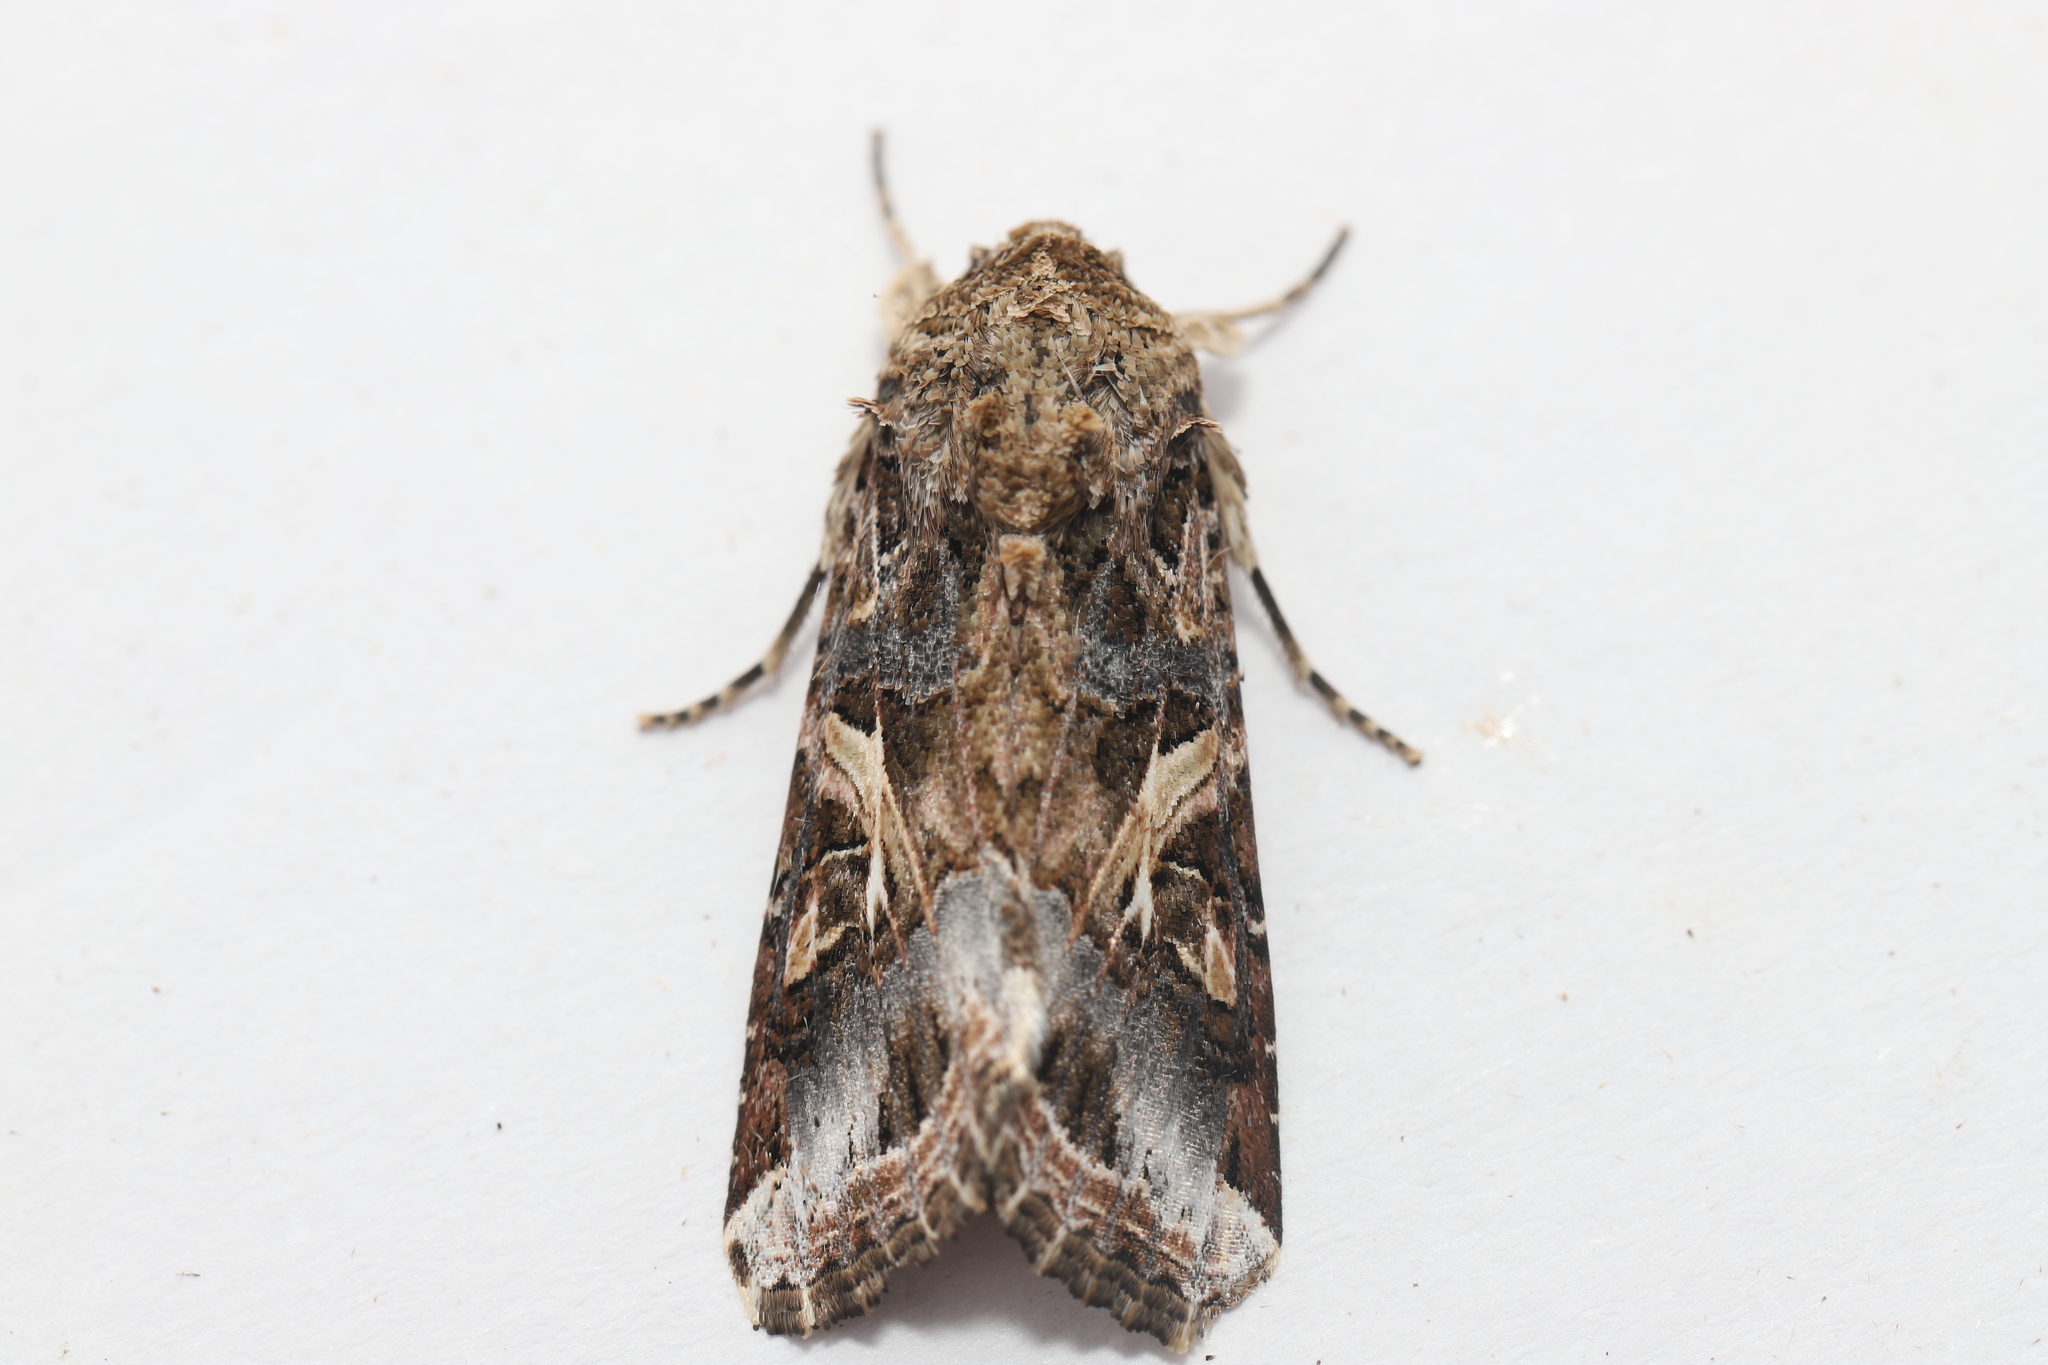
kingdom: Animalia
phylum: Arthropoda
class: Insecta
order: Lepidoptera
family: Noctuidae
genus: Spodoptera
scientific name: Spodoptera ornithogalli
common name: Yellow-striped armyworm
